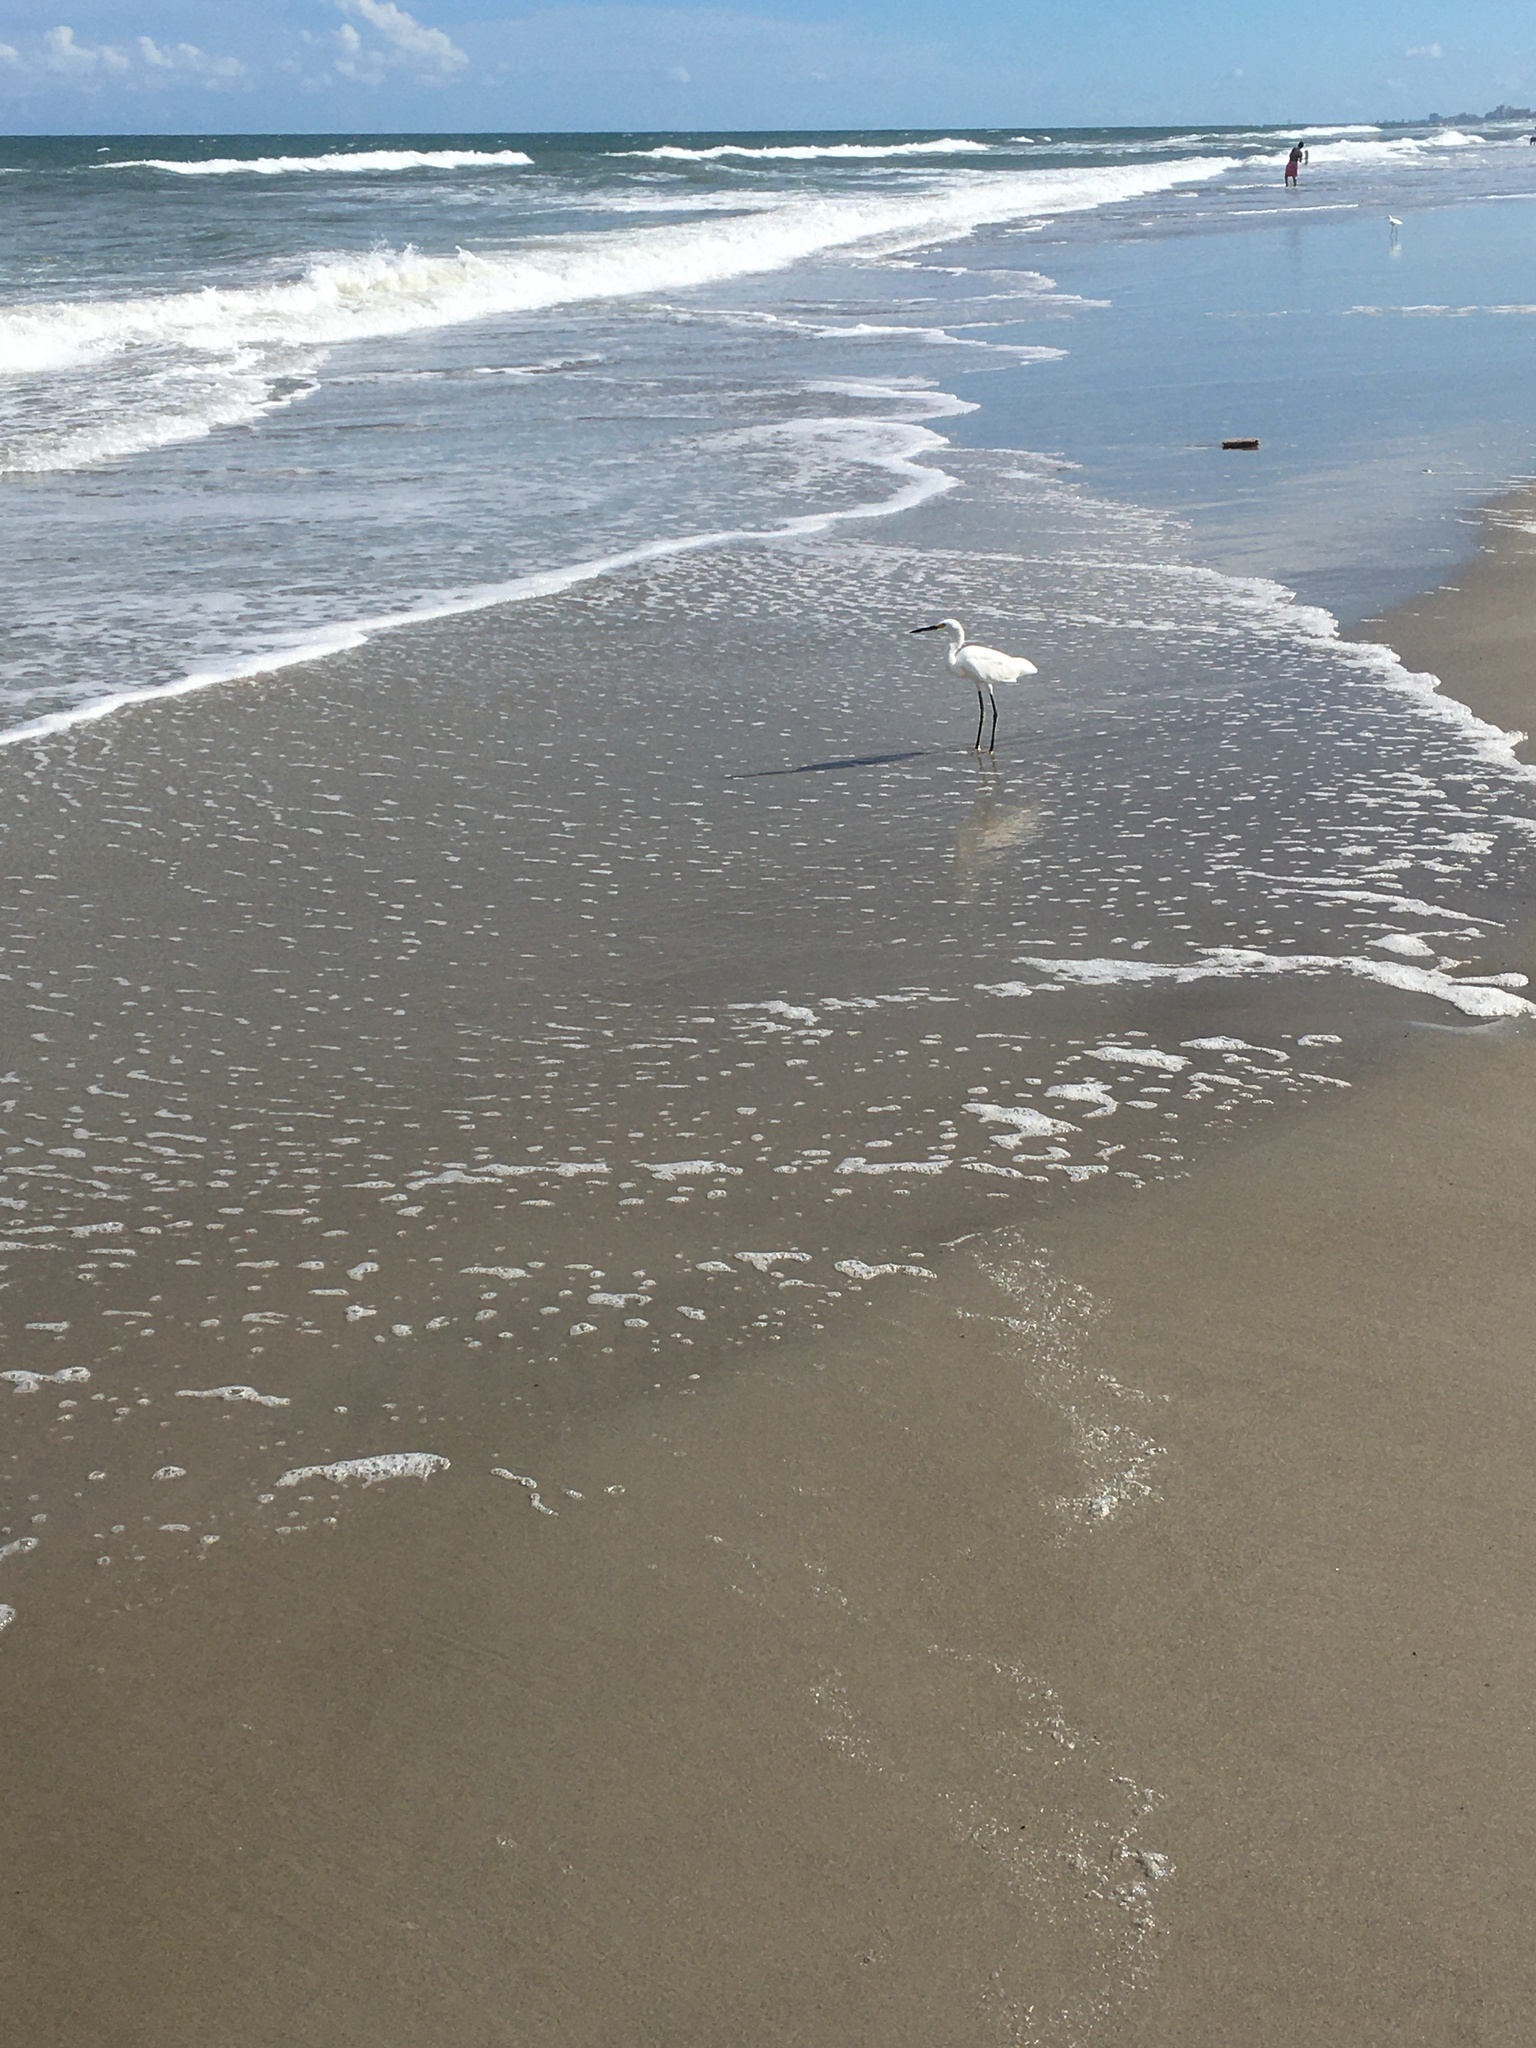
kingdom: Animalia
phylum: Chordata
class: Aves
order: Pelecaniformes
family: Ardeidae
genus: Egretta
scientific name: Egretta thula
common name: Snowy egret
